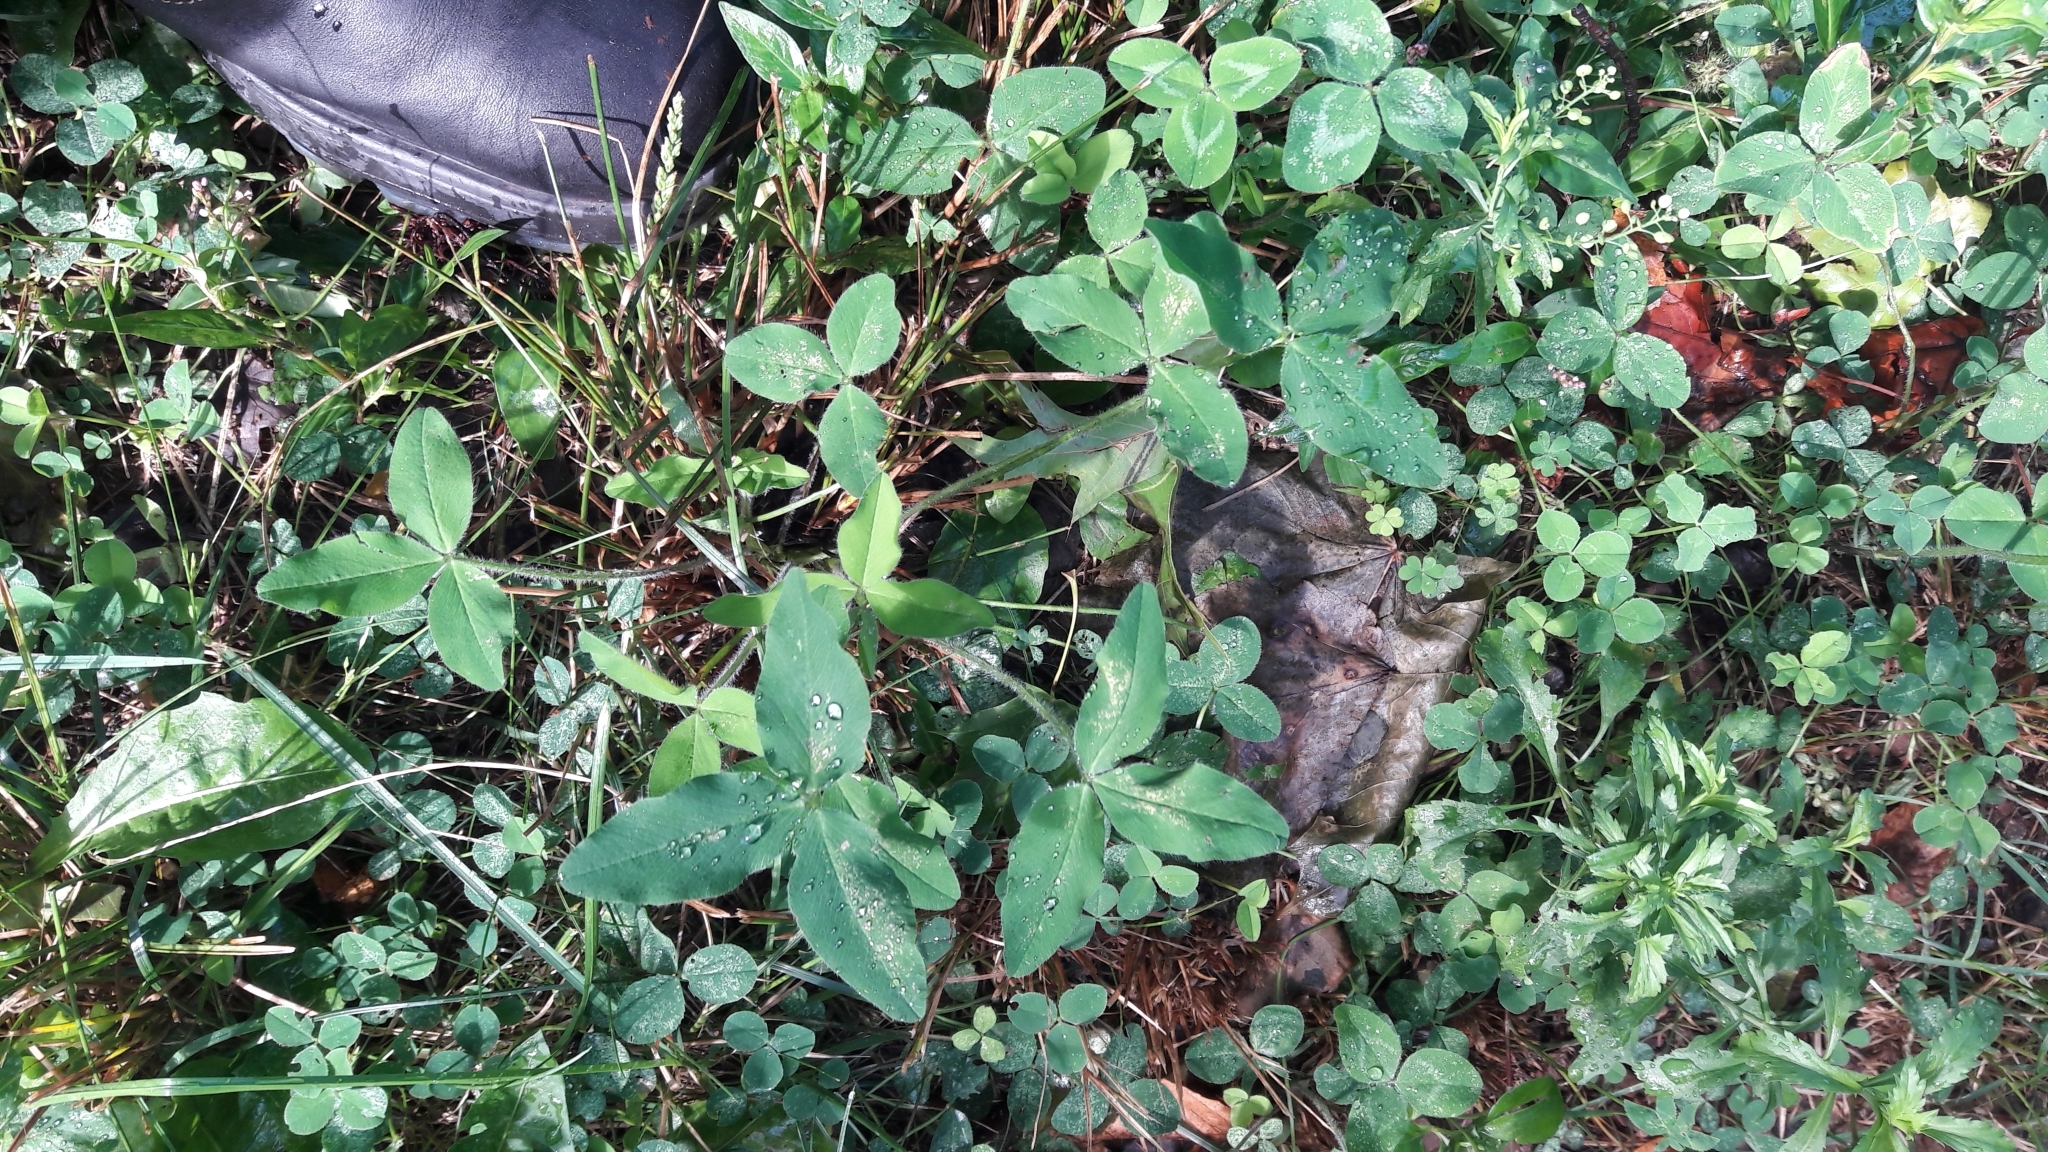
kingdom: Plantae
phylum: Tracheophyta
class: Magnoliopsida
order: Fabales
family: Fabaceae
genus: Trifolium
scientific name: Trifolium pratense
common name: Red clover
